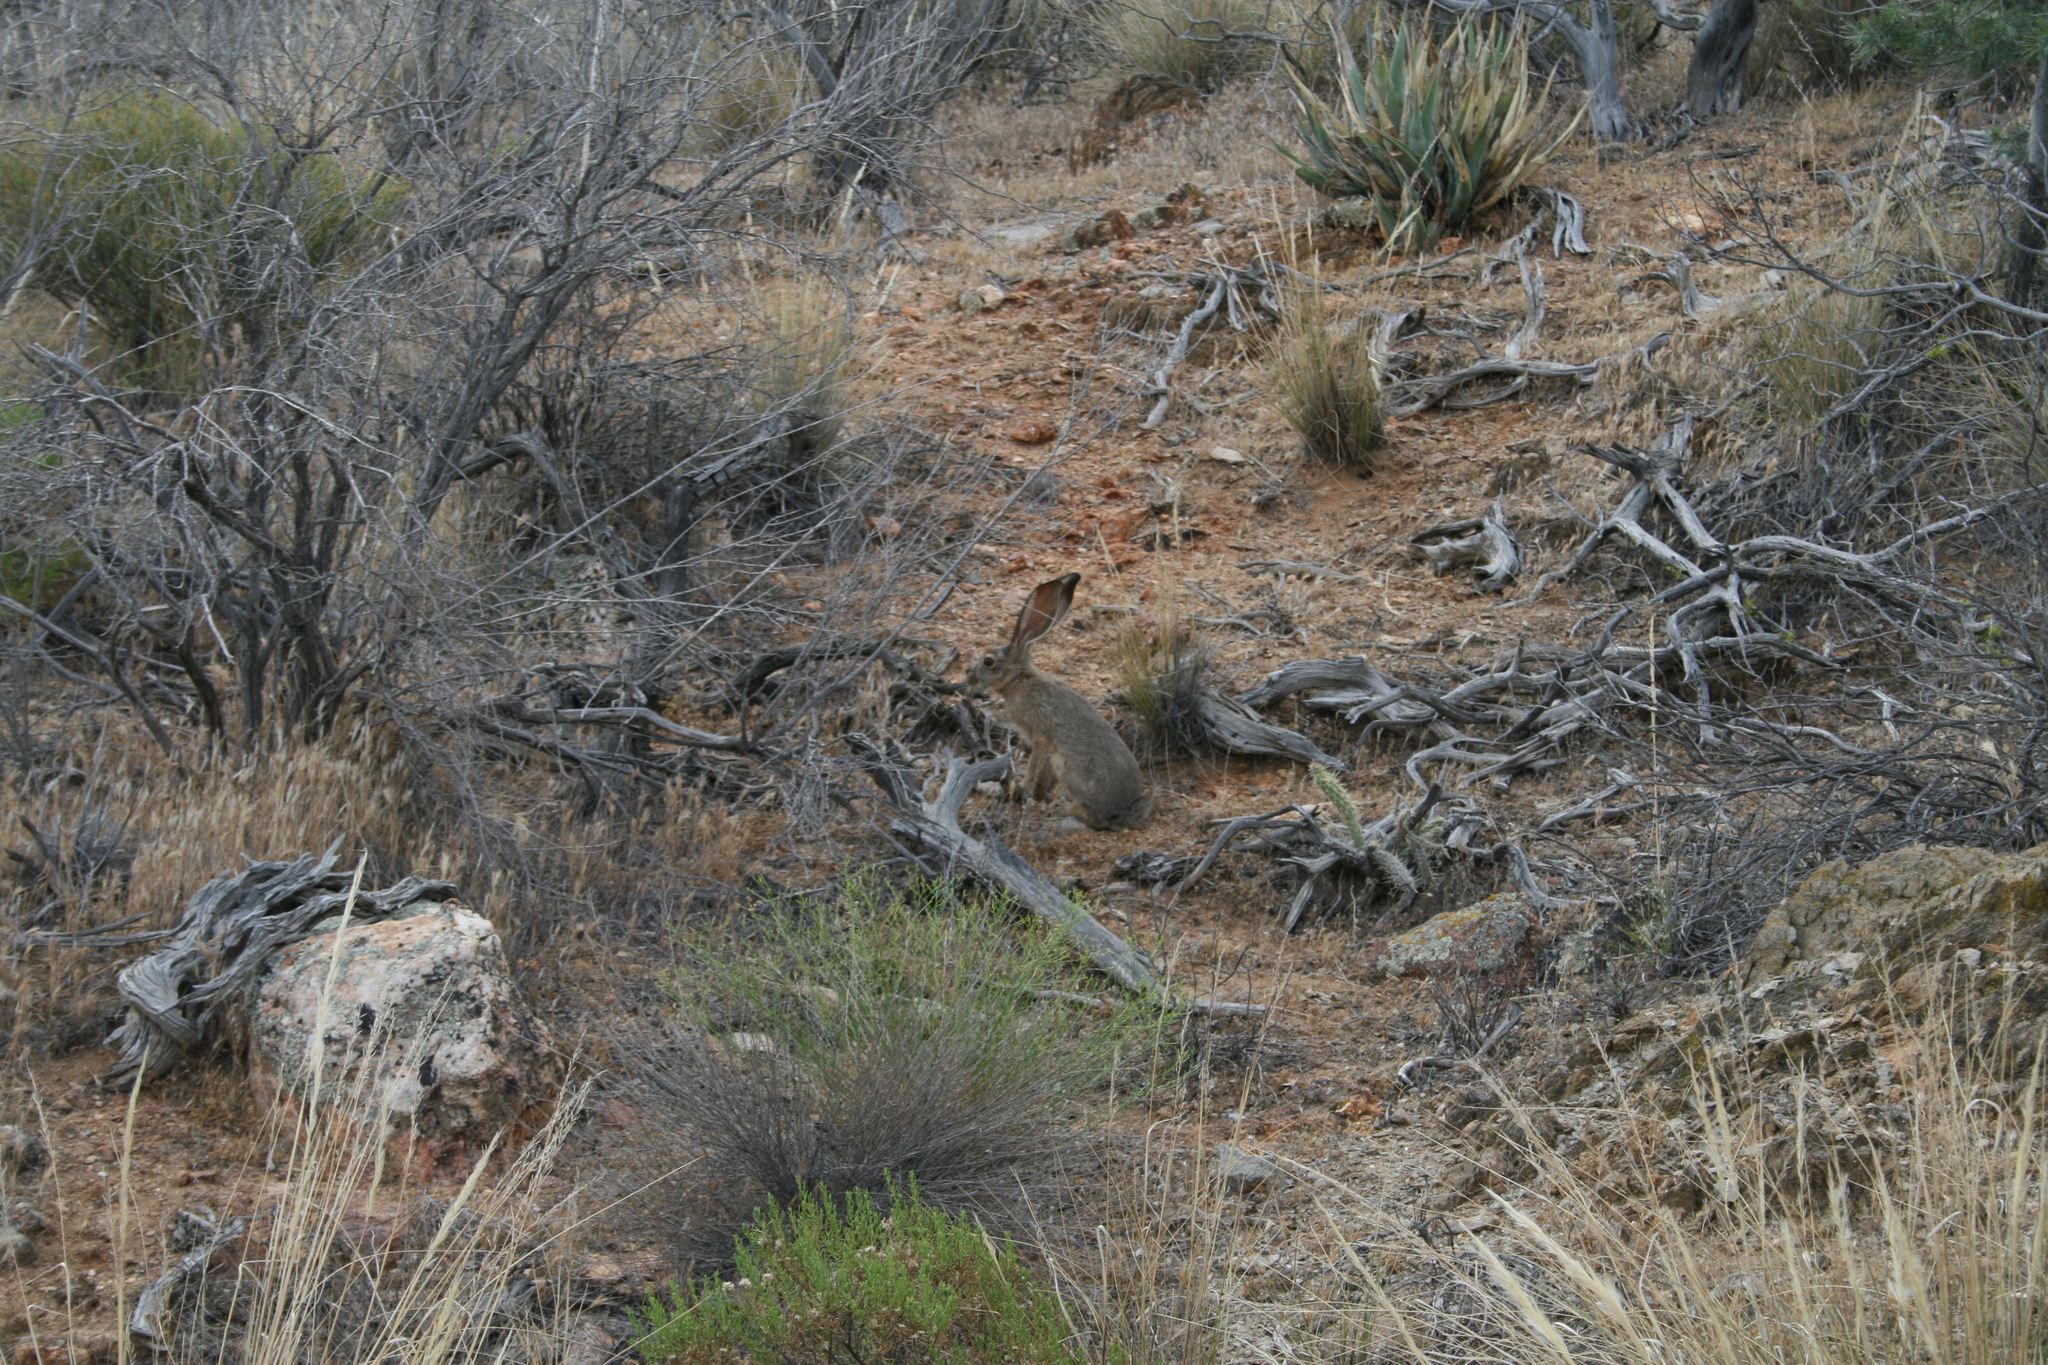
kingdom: Animalia
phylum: Chordata
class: Mammalia
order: Lagomorpha
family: Leporidae
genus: Lepus
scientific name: Lepus californicus
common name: Black-tailed jackrabbit
